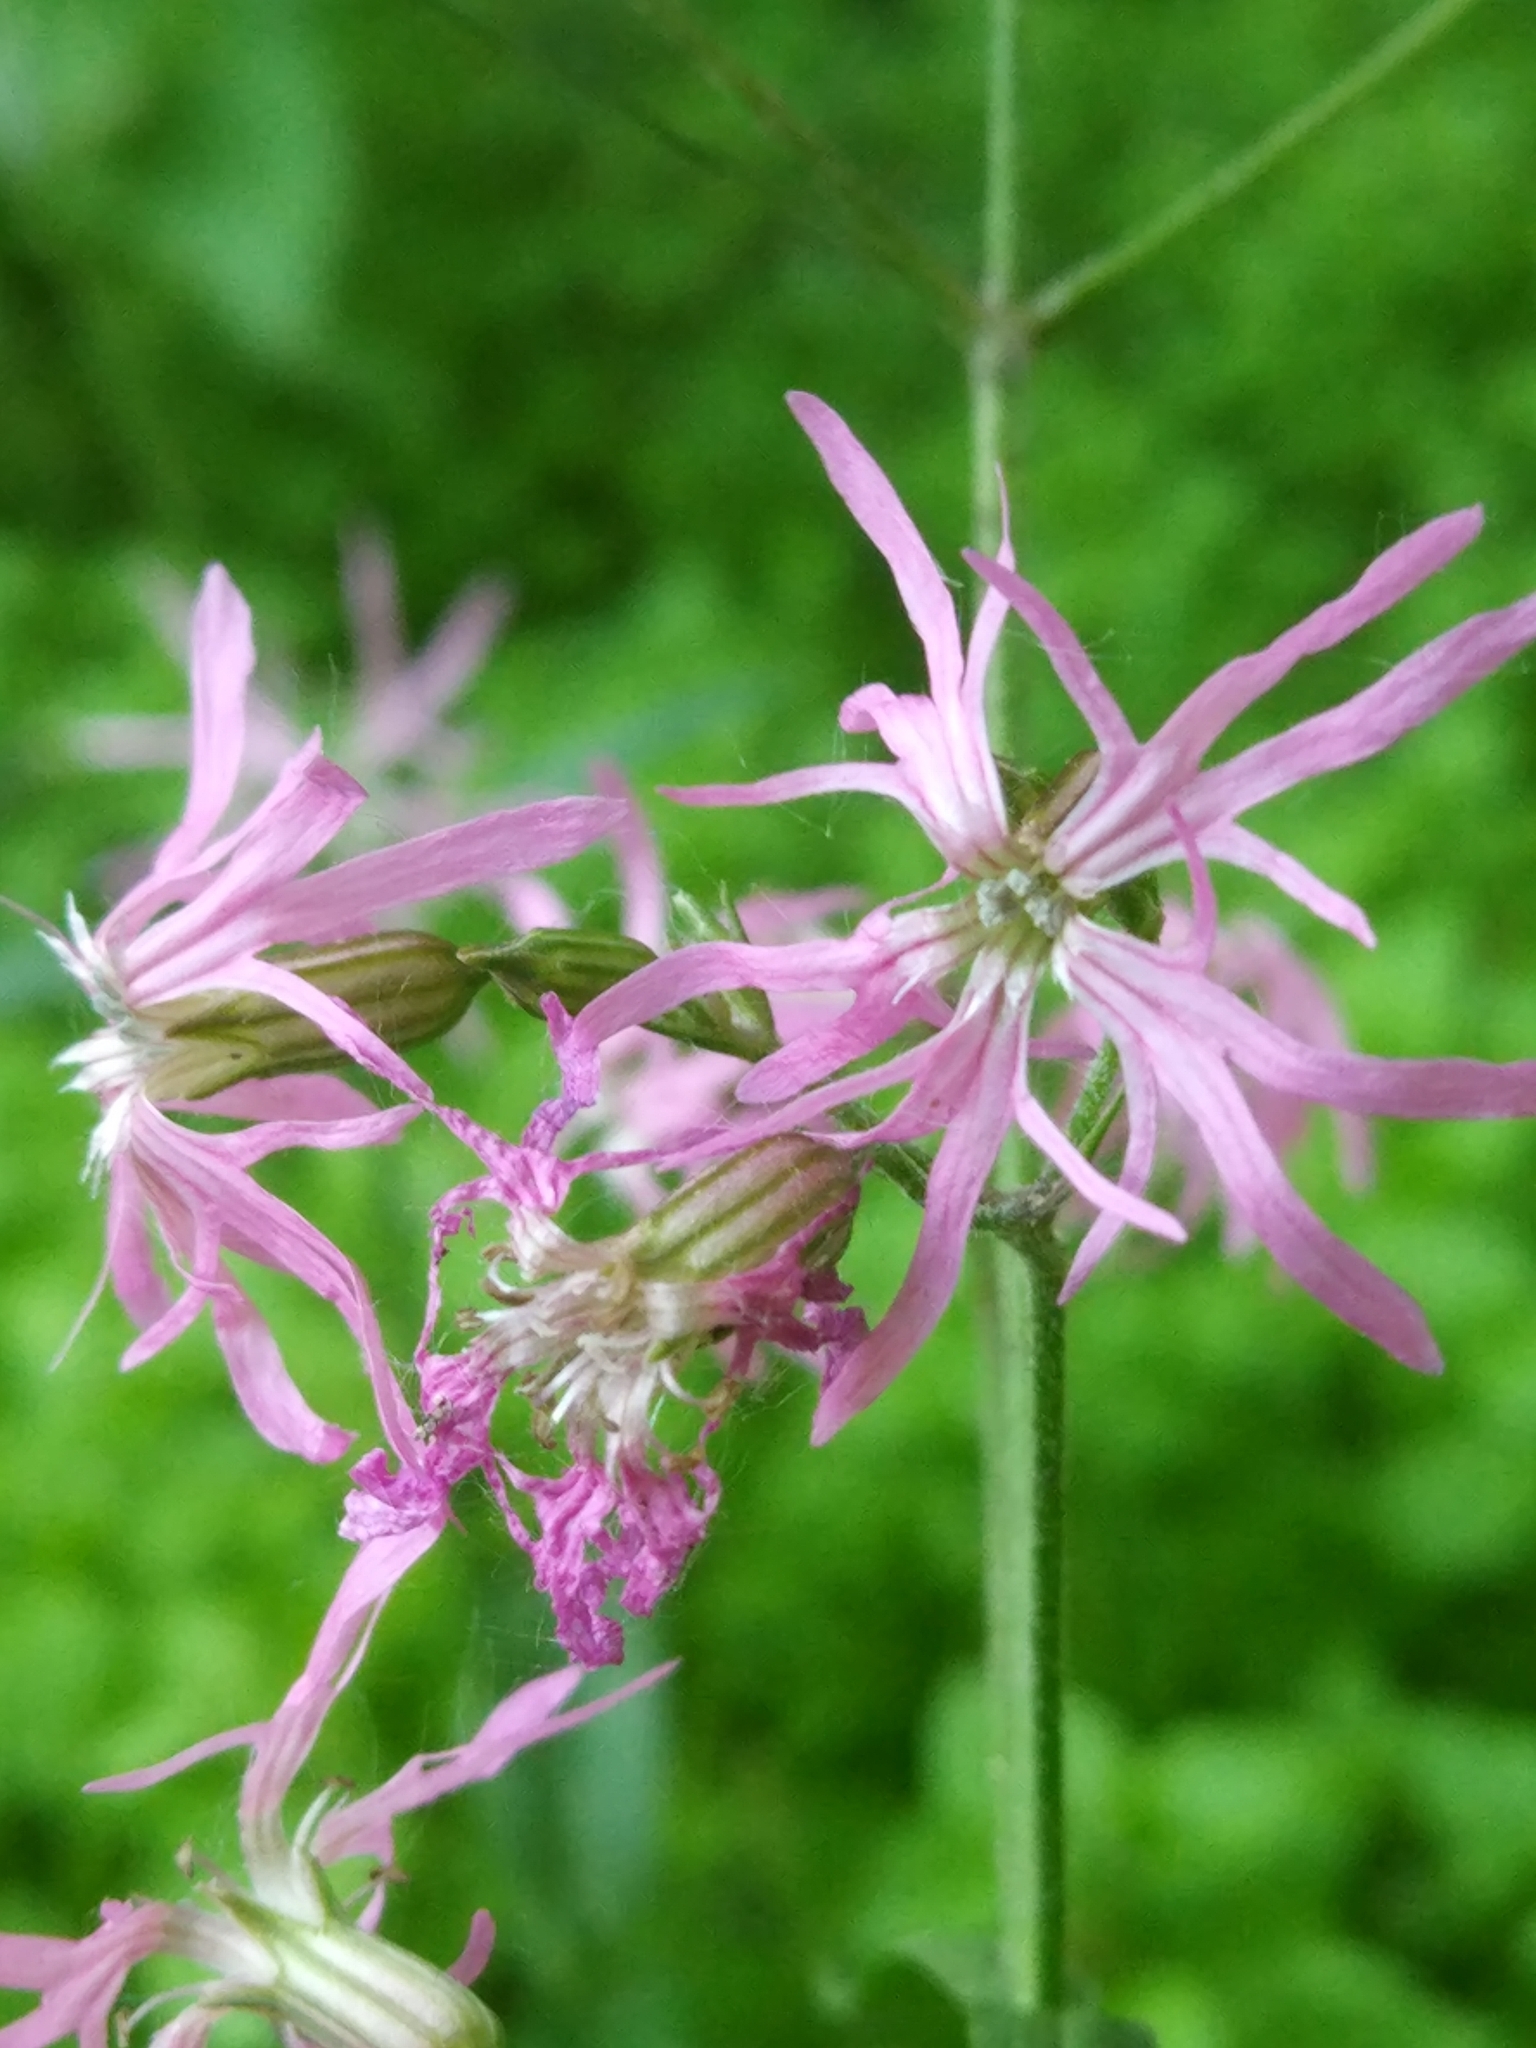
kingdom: Plantae
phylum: Tracheophyta
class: Magnoliopsida
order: Caryophyllales
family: Caryophyllaceae
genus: Silene
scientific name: Silene flos-cuculi
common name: Ragged-robin
